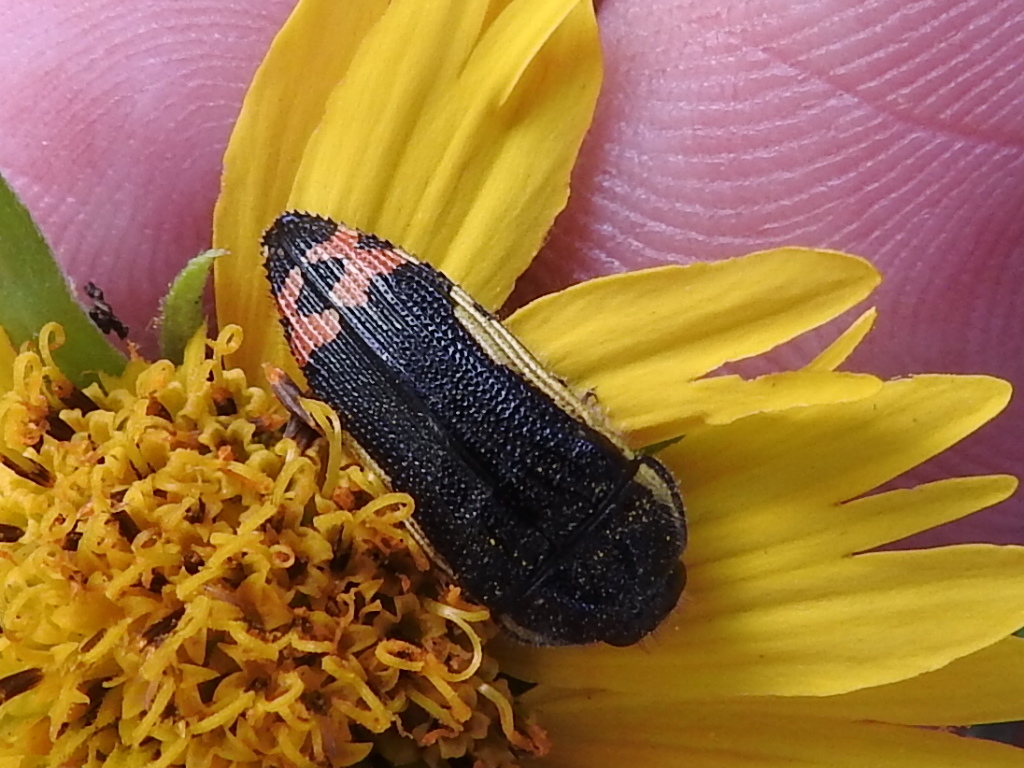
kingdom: Animalia
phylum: Arthropoda
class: Insecta
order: Coleoptera
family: Buprestidae
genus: Acmaeodera
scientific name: Acmaeodera flavomarginata
